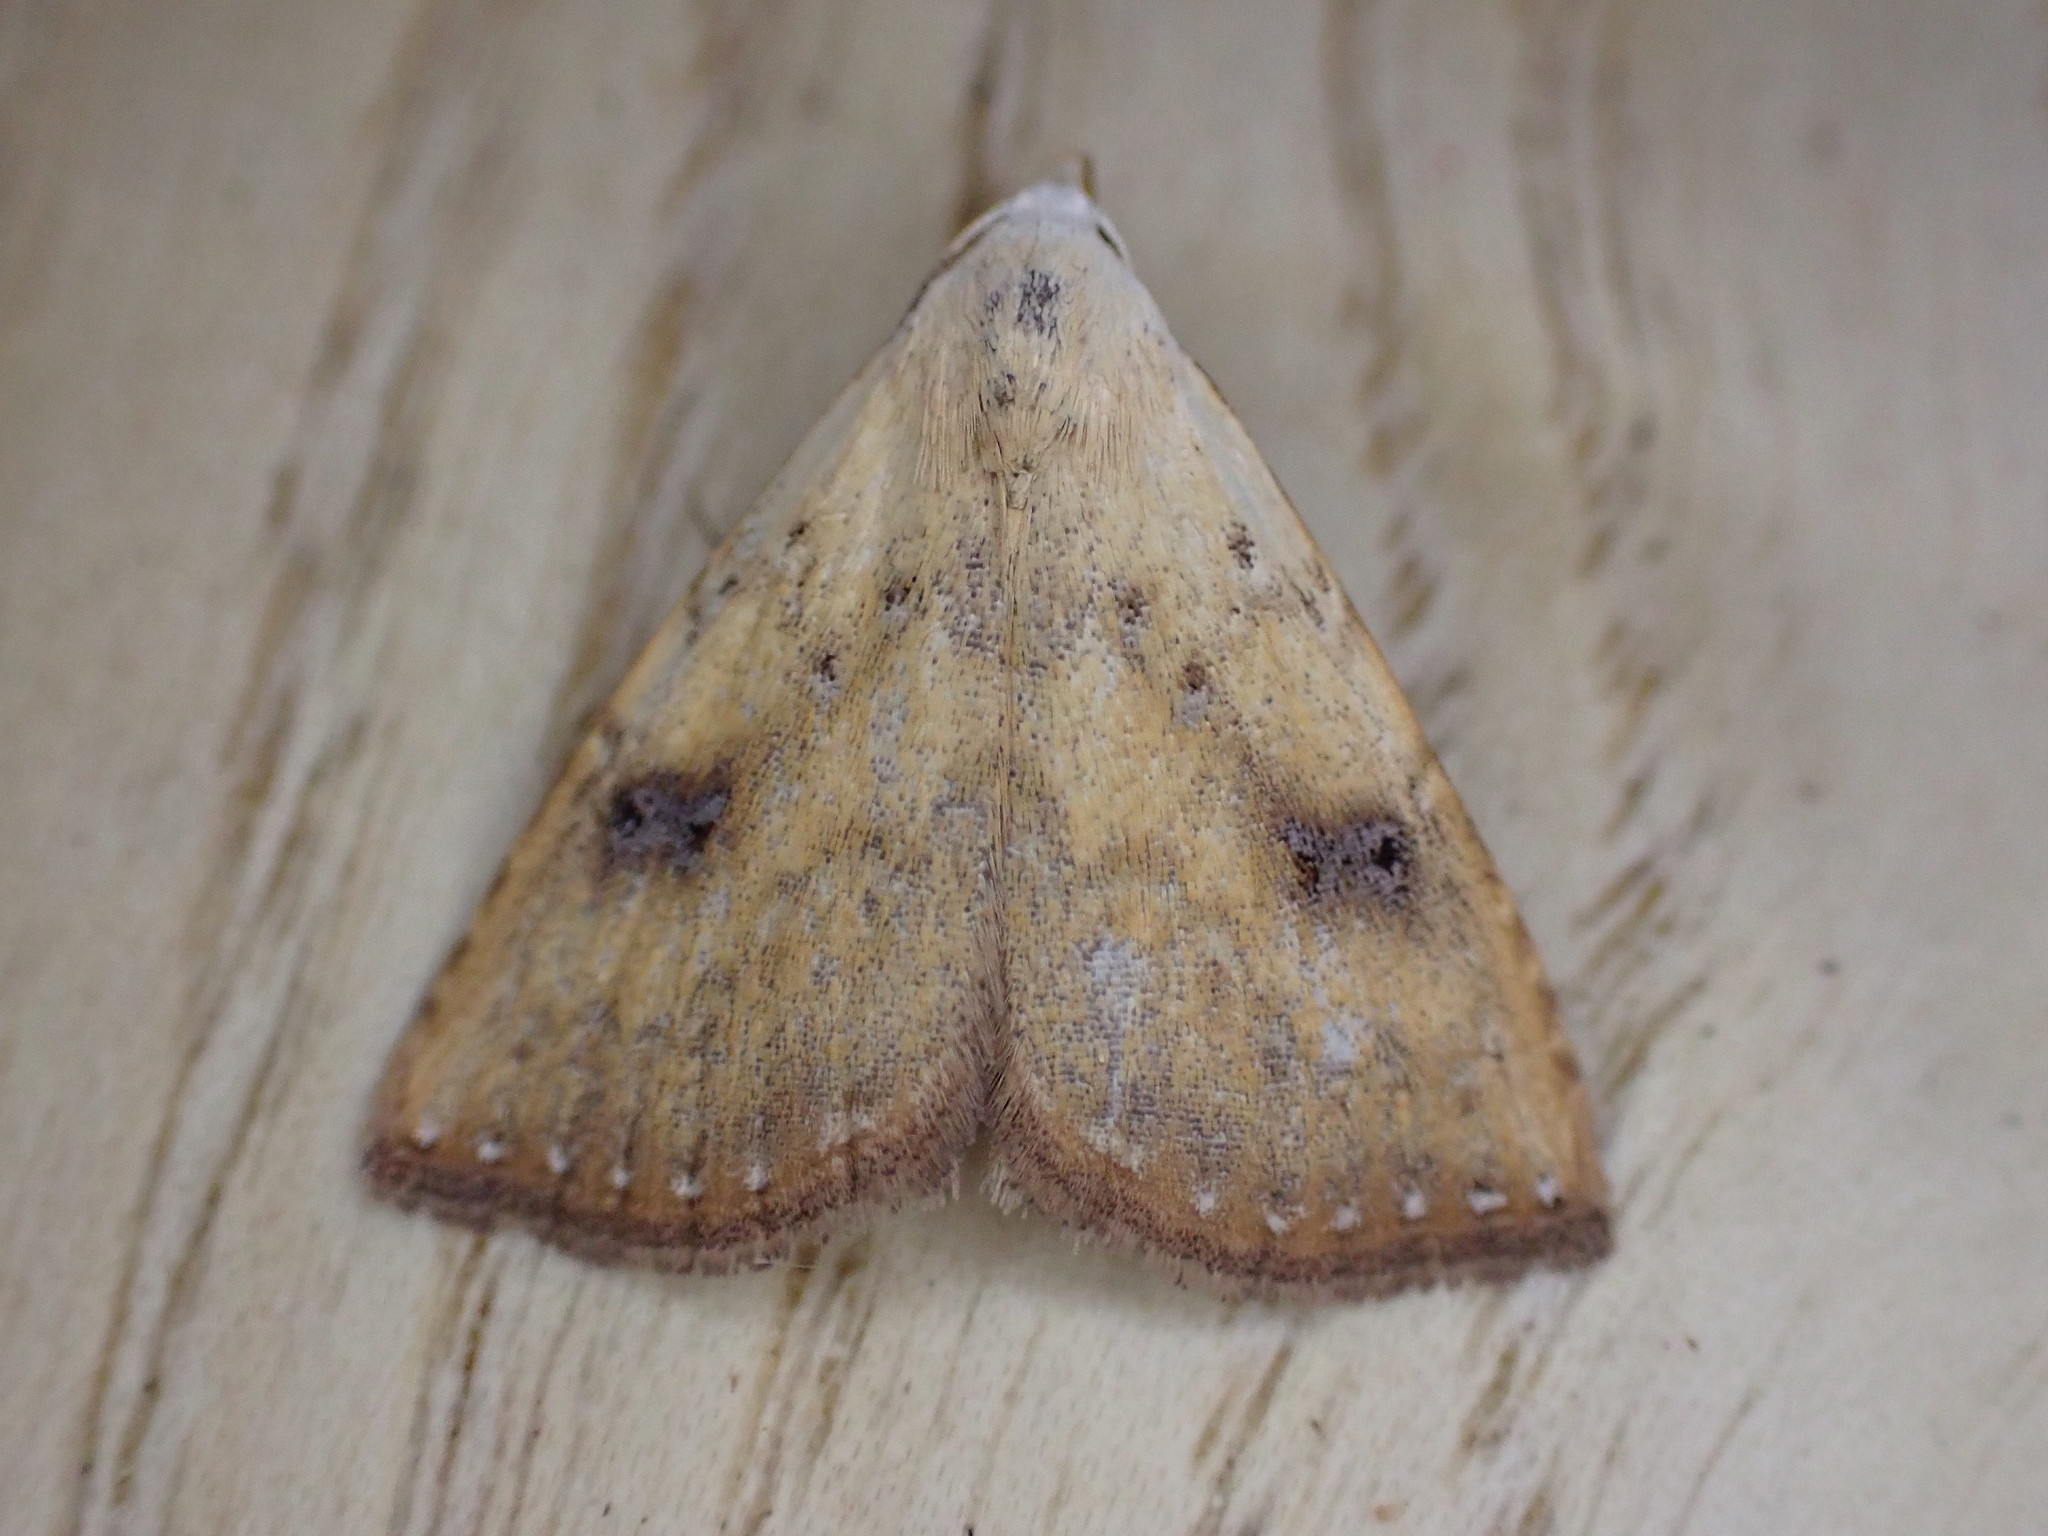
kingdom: Animalia
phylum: Arthropoda
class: Insecta
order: Lepidoptera
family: Erebidae
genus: Rivula
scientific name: Rivula sericealis
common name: Straw dot
